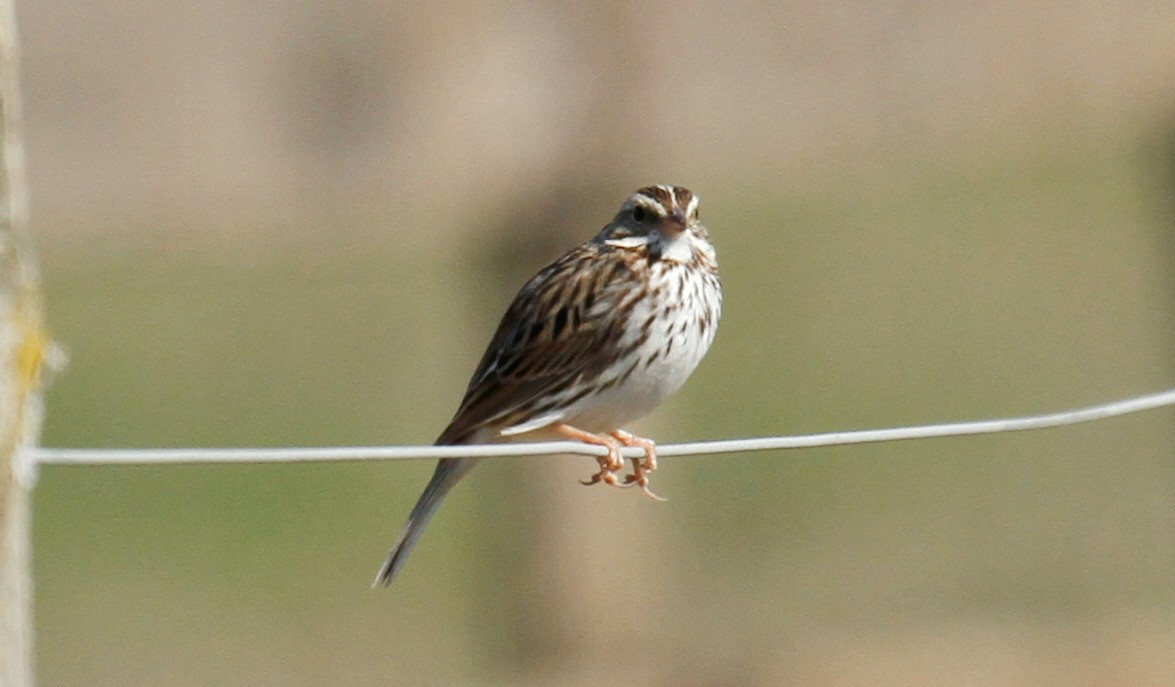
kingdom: Animalia
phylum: Chordata
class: Aves
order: Passeriformes
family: Passerellidae
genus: Passerculus
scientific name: Passerculus sandwichensis
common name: Savannah sparrow
